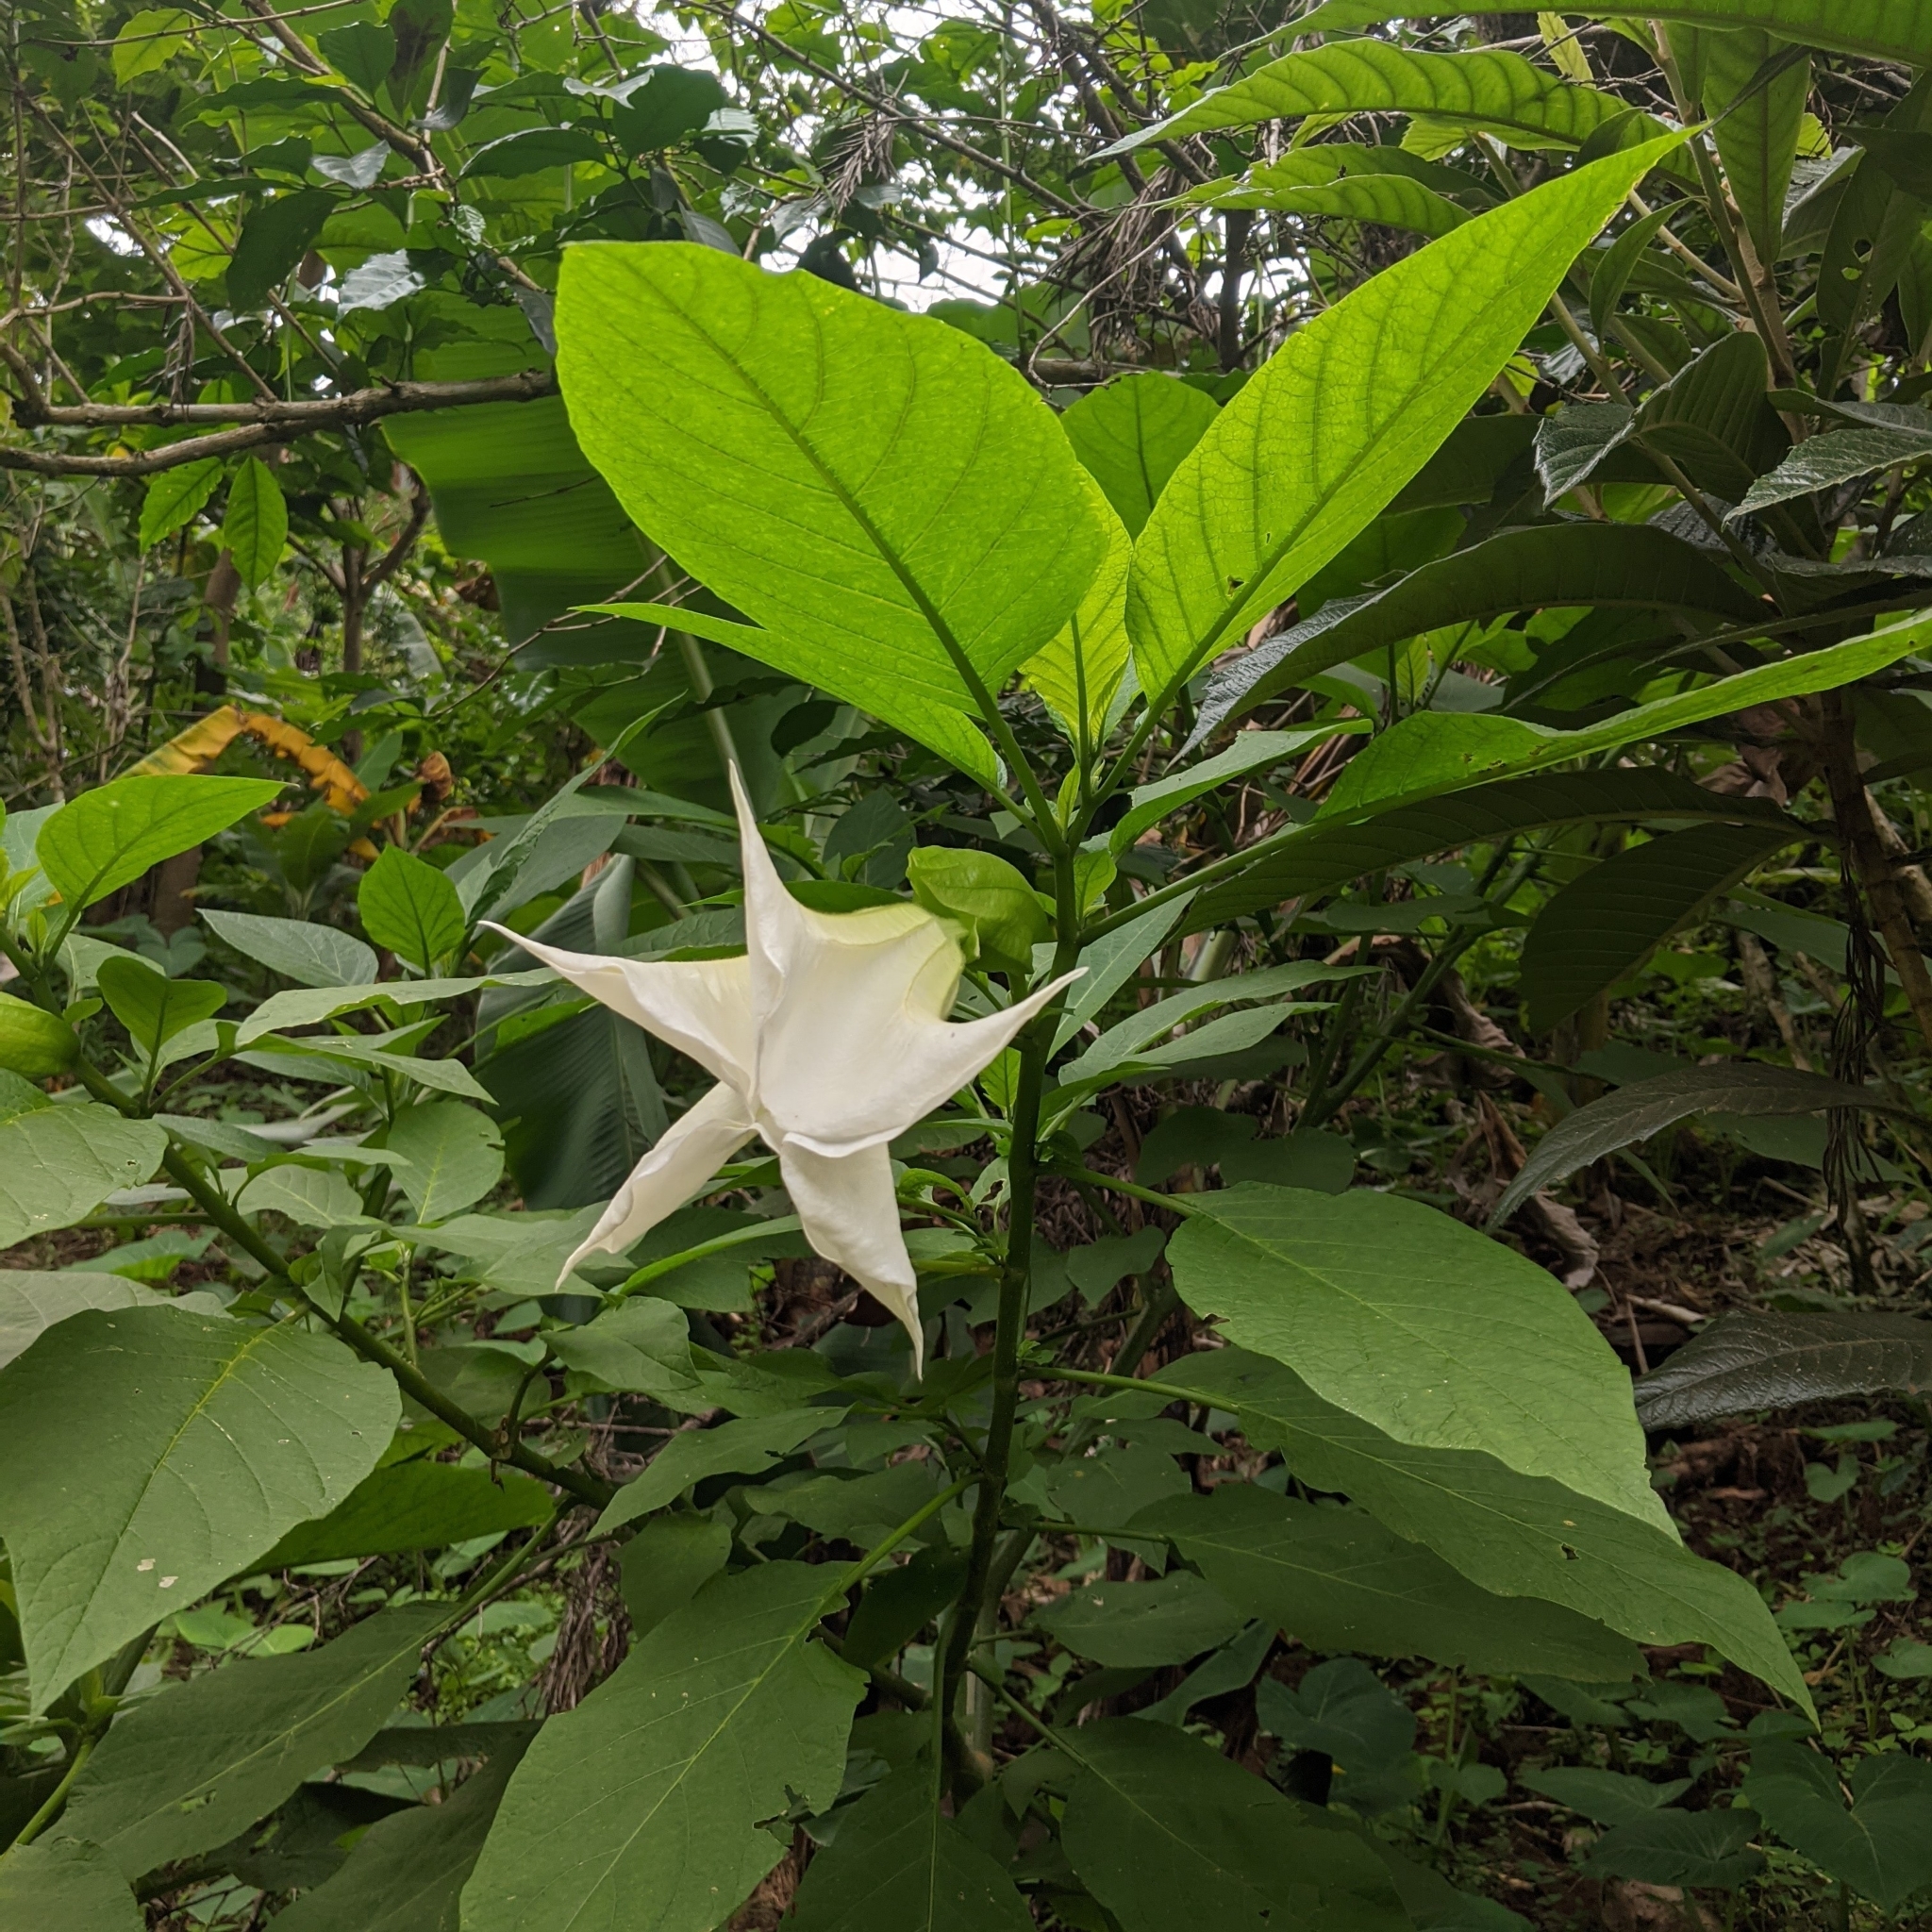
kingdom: Plantae
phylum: Tracheophyta
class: Magnoliopsida
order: Solanales
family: Solanaceae
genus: Brugmansia
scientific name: Brugmansia suaveolens
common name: Angel's tears
